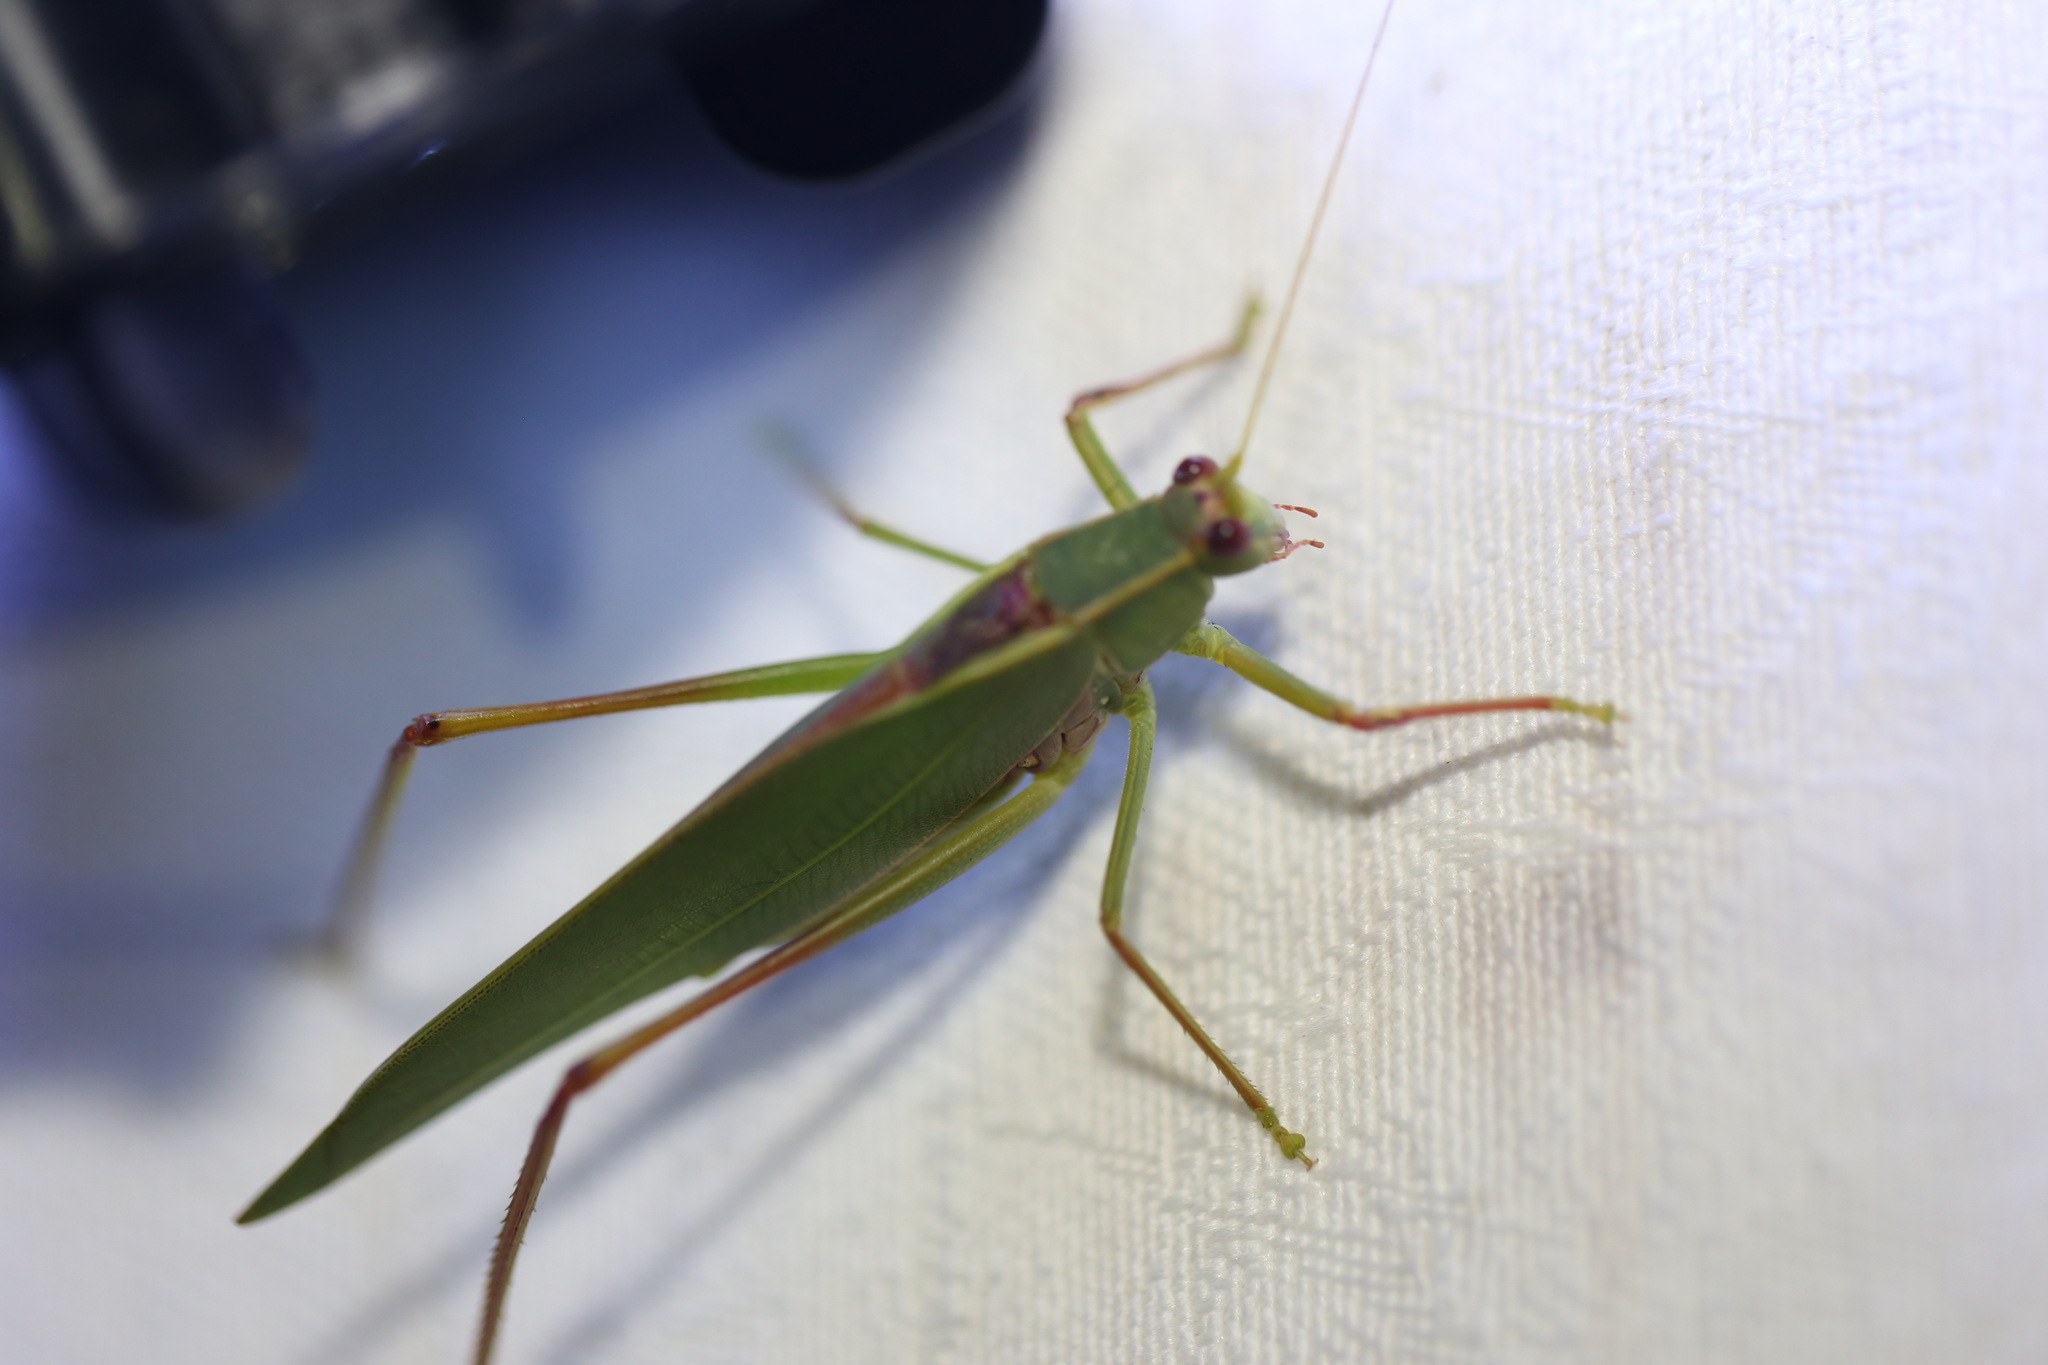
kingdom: Animalia
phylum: Arthropoda
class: Insecta
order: Orthoptera
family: Tettigoniidae
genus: Torbia
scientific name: Torbia viridissima
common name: Non-predaceous gum leaf katydid
